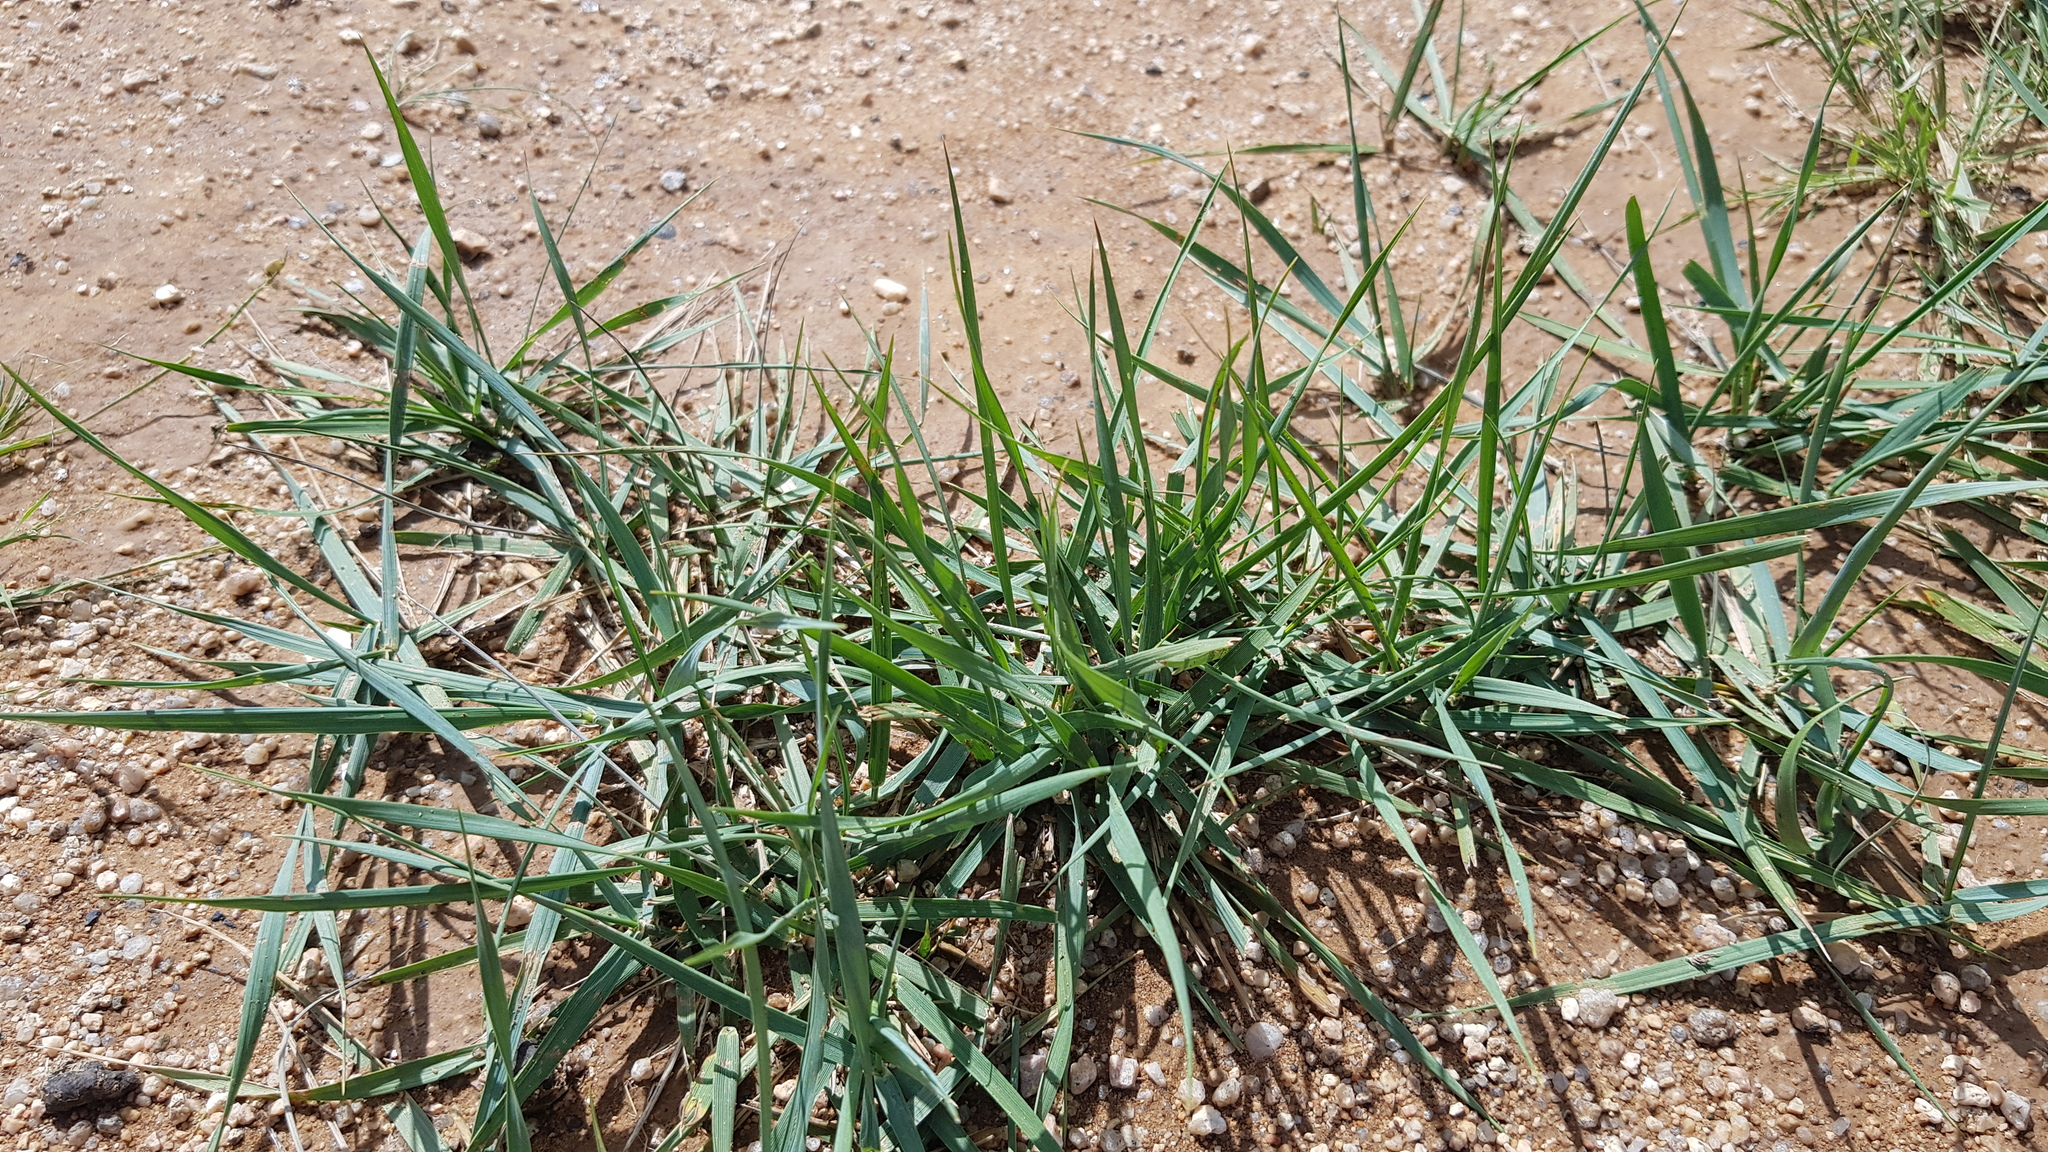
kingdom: Plantae
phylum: Tracheophyta
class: Liliopsida
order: Poales
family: Poaceae
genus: Leymus
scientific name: Leymus chinensis
